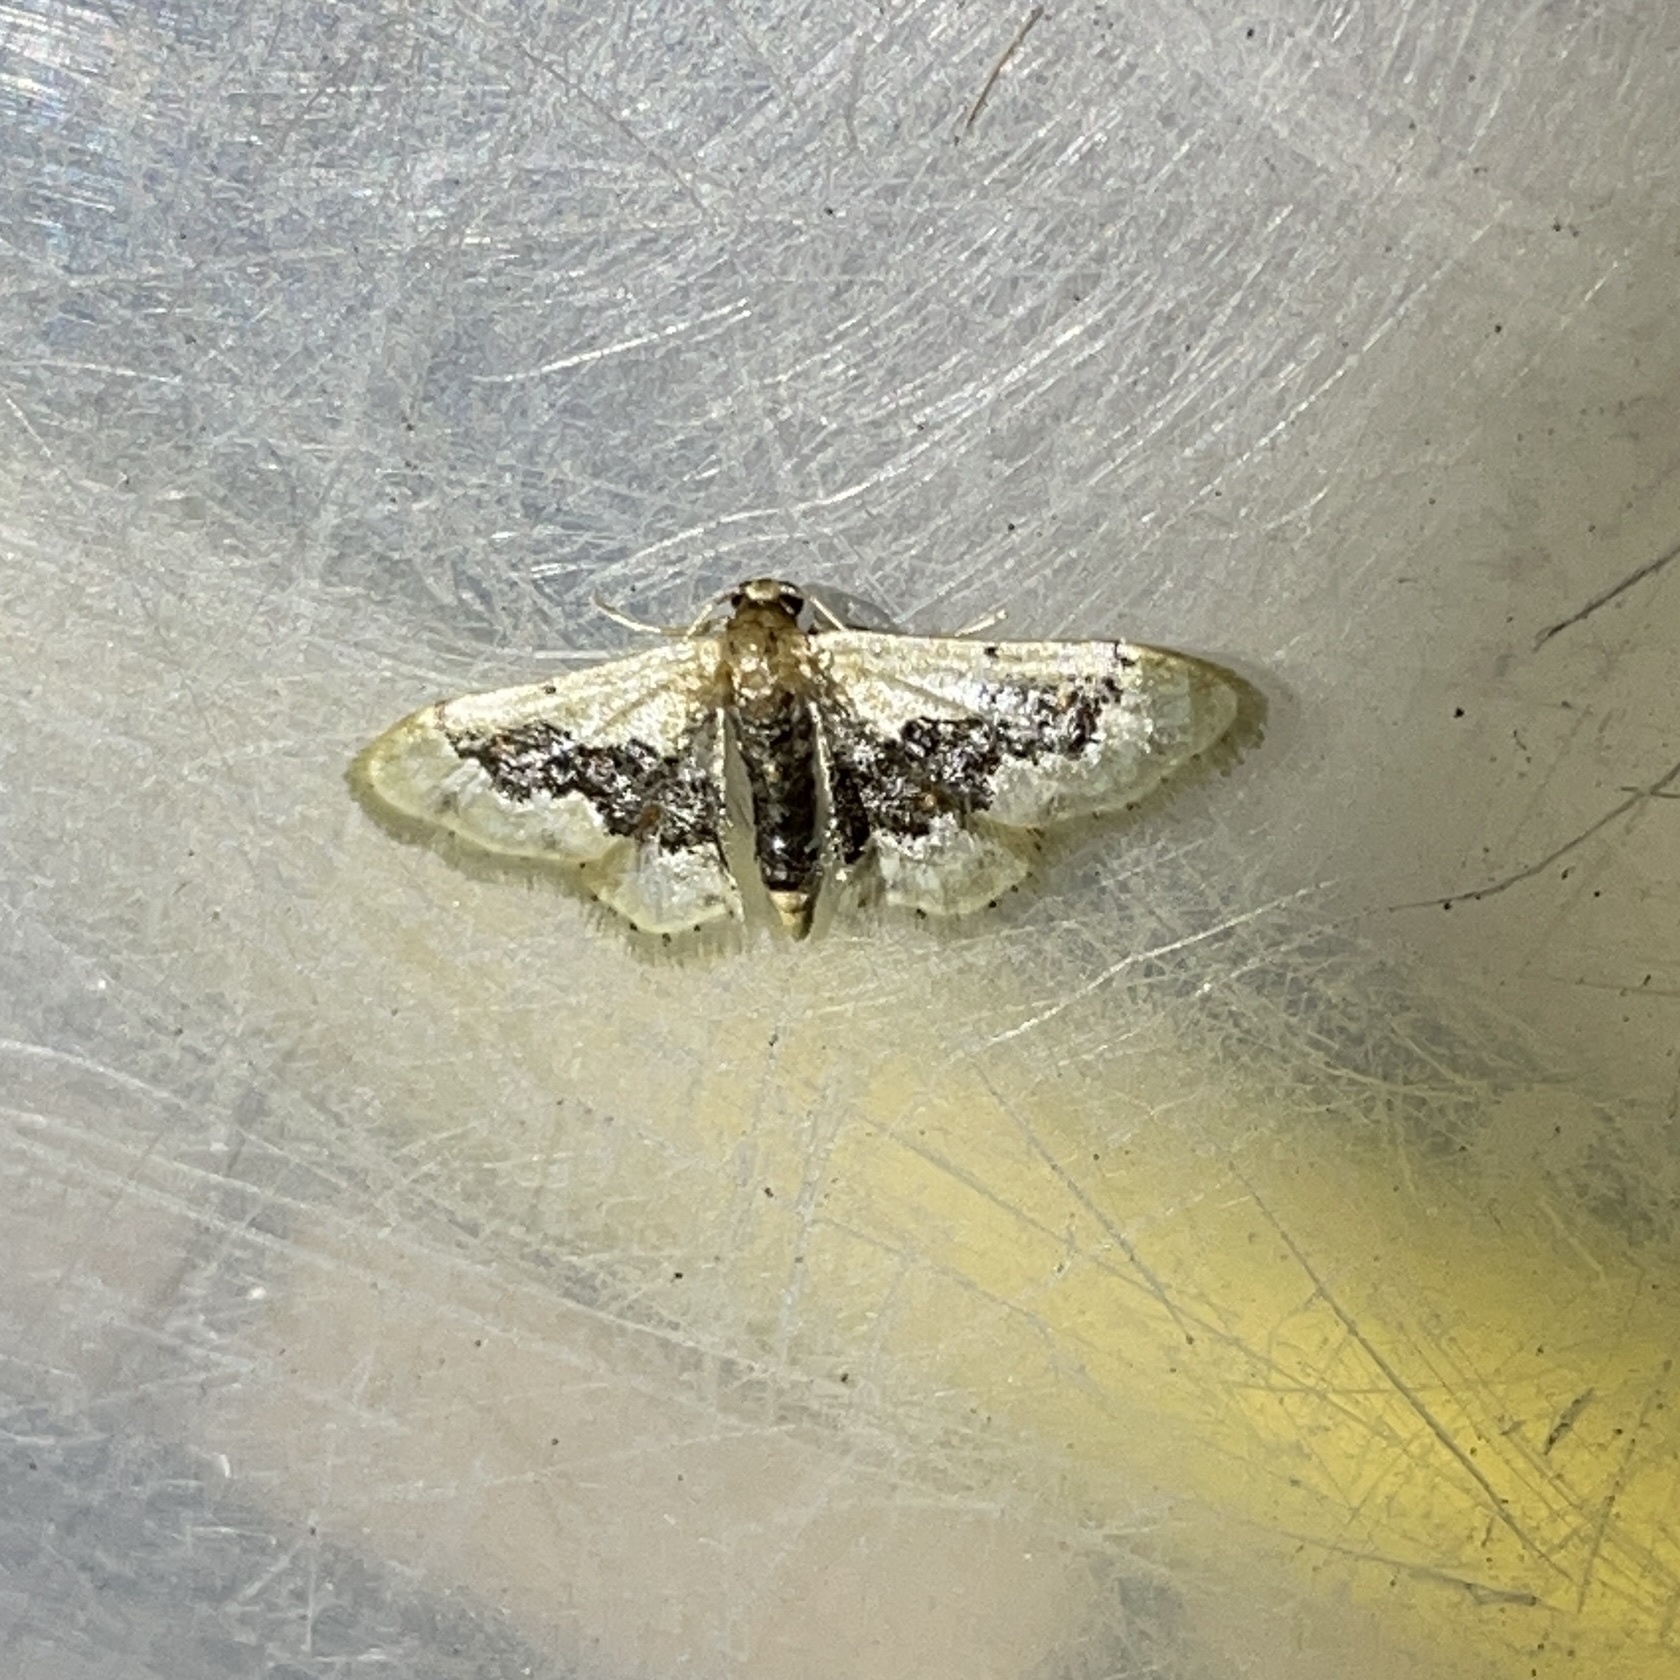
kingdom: Animalia
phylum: Arthropoda
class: Insecta
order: Lepidoptera
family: Geometridae
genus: Idaea
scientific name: Idaea gemmata
